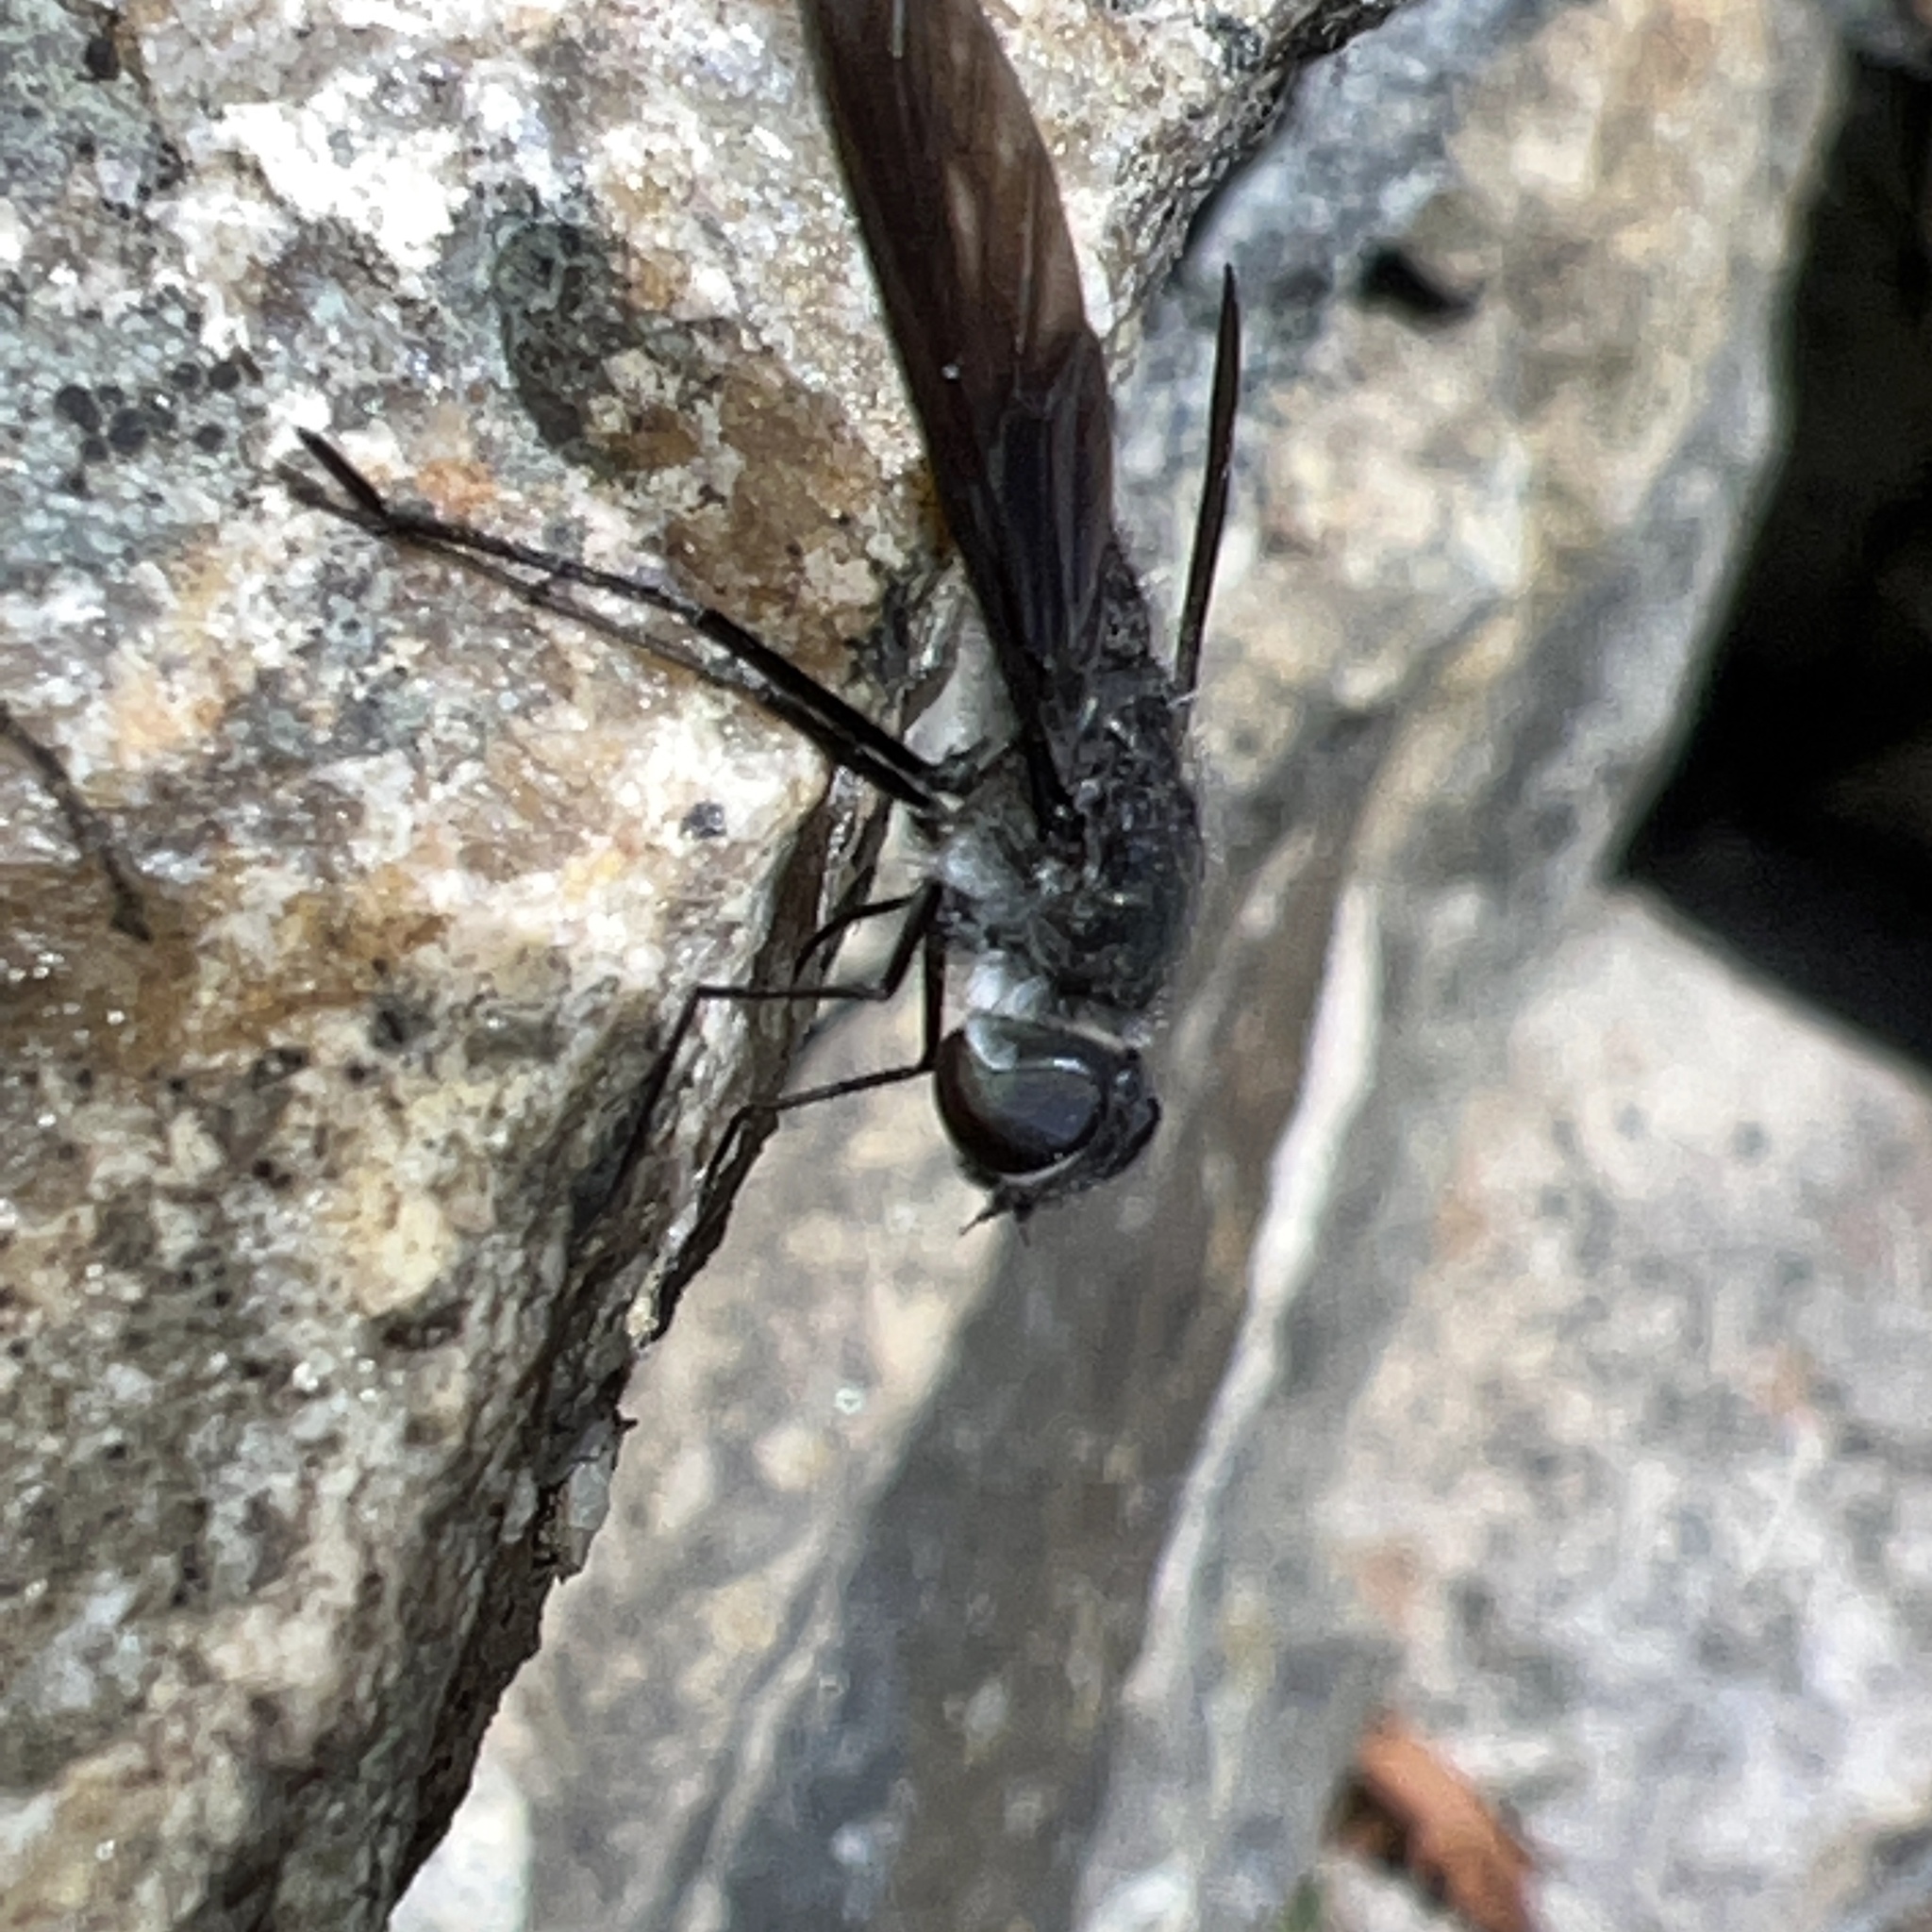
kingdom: Animalia
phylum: Arthropoda
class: Insecta
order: Diptera
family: Bombyliidae
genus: Brachyanax
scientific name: Brachyanax aterrimus
